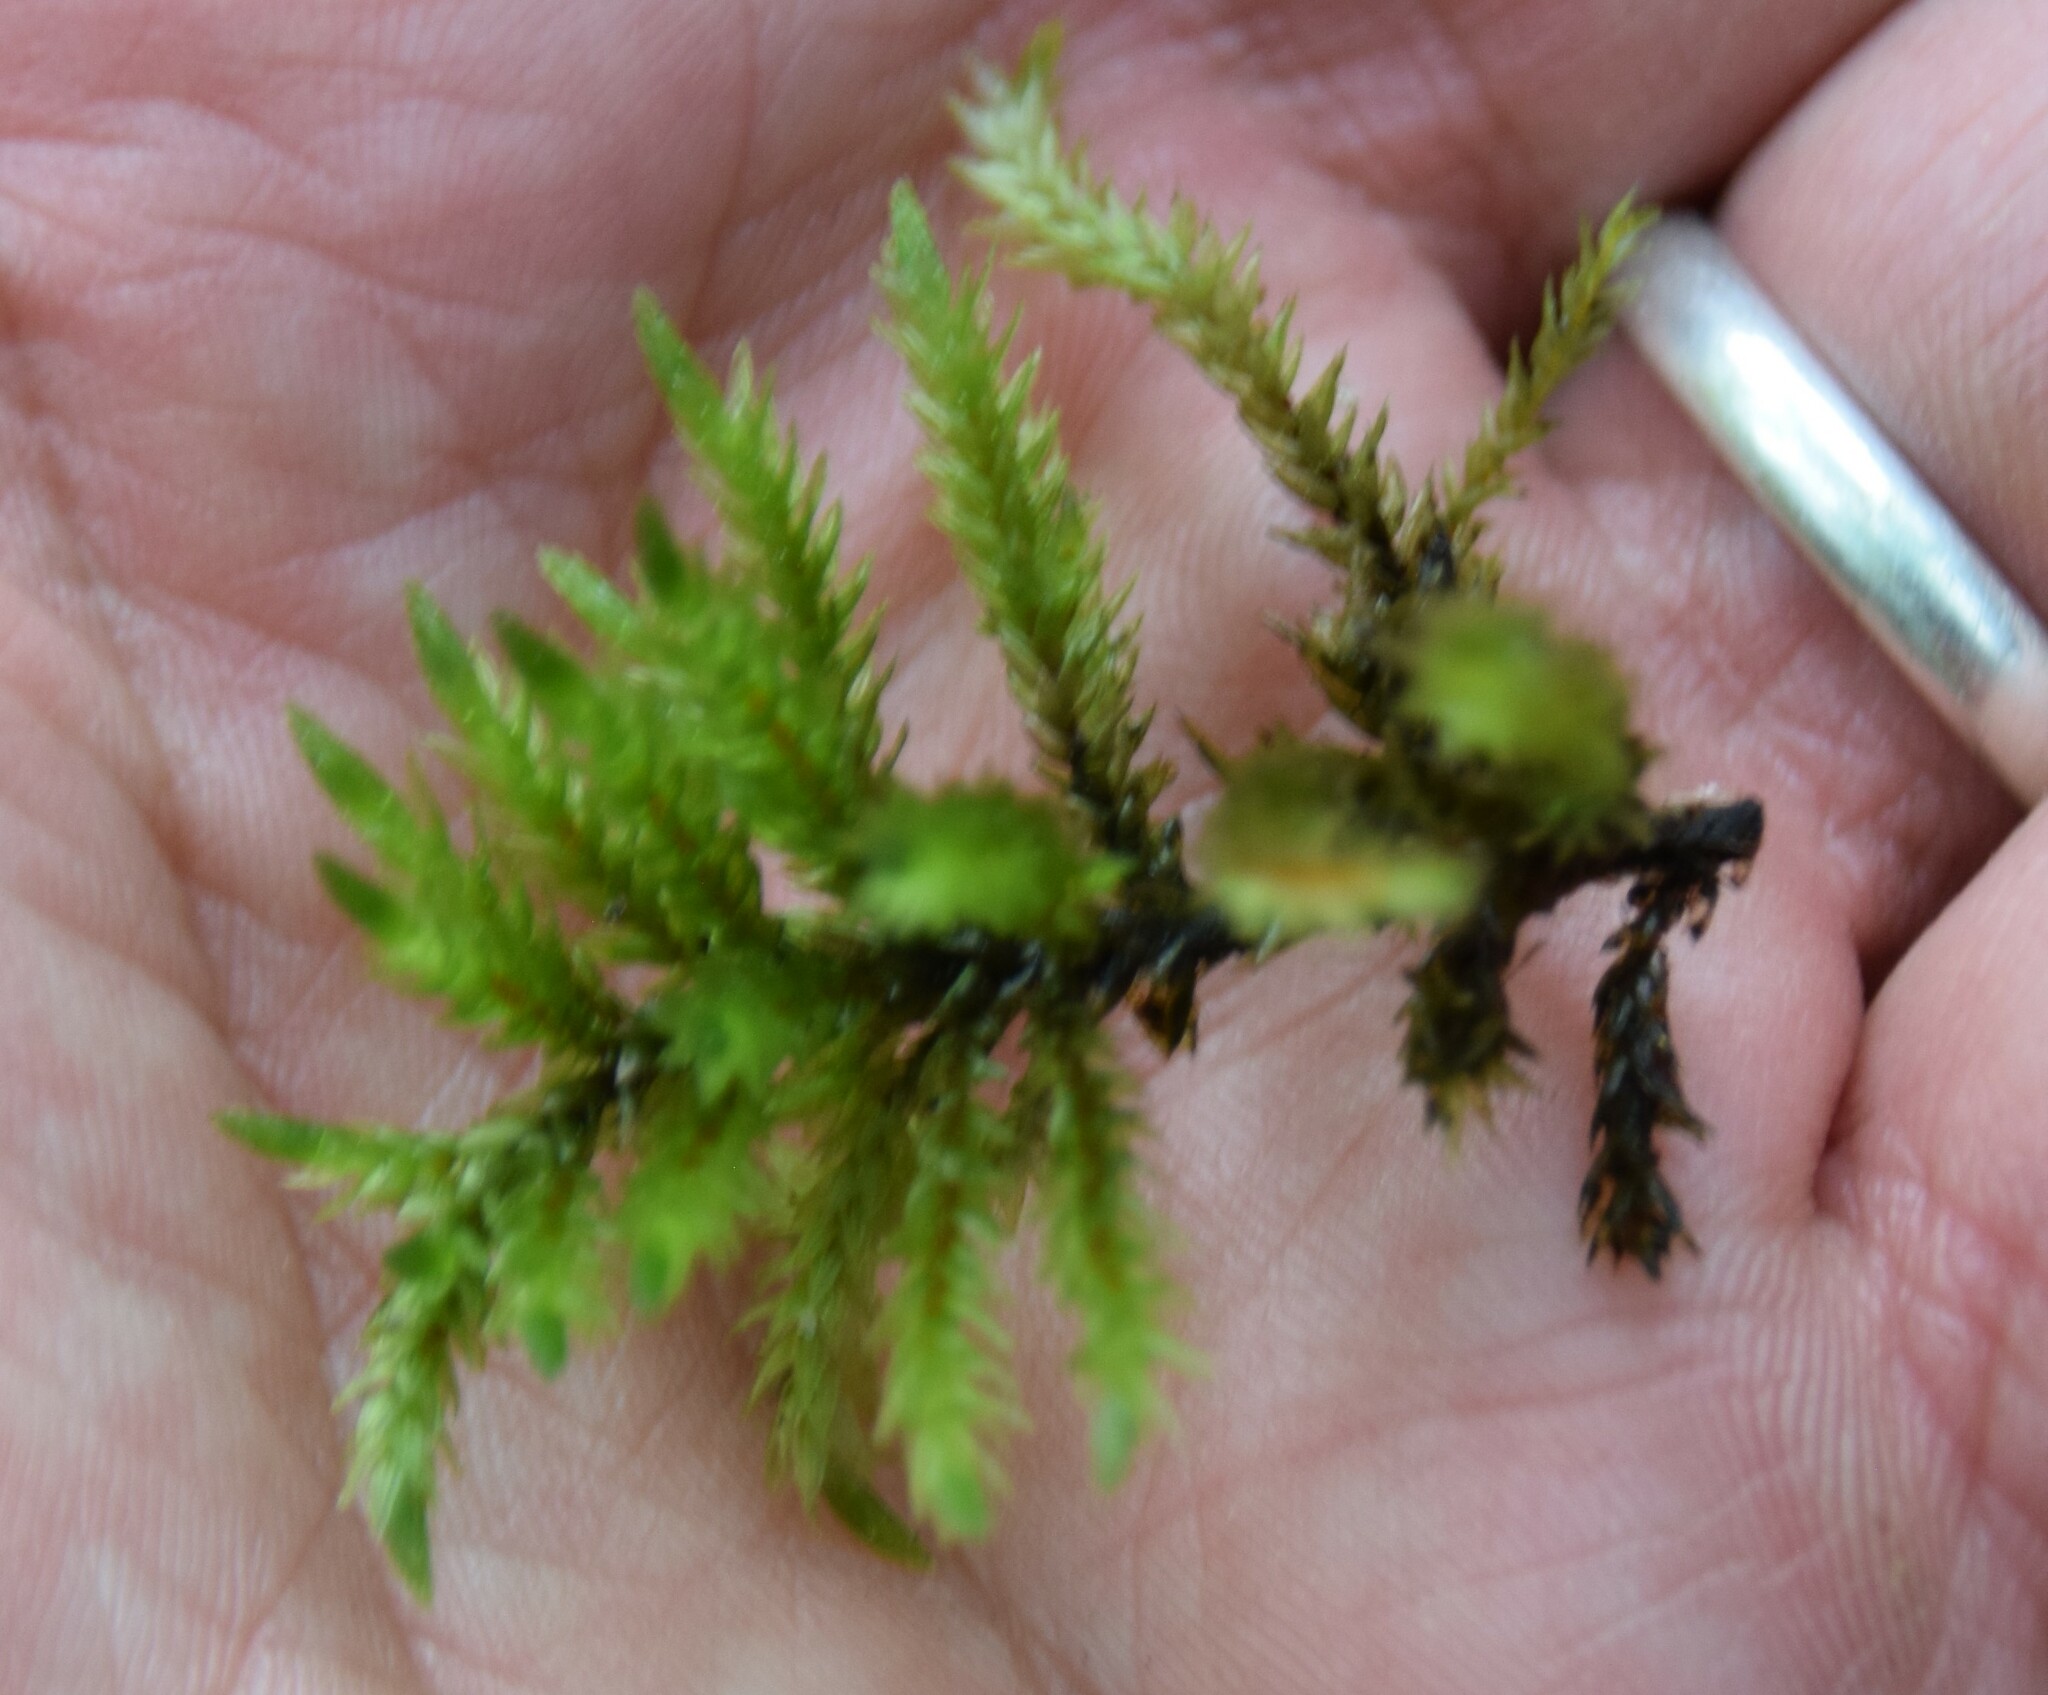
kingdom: Plantae
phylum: Bryophyta
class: Bryopsida
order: Hypnales
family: Climaciaceae
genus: Climacium
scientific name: Climacium dendroides
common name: Northern tree moss
